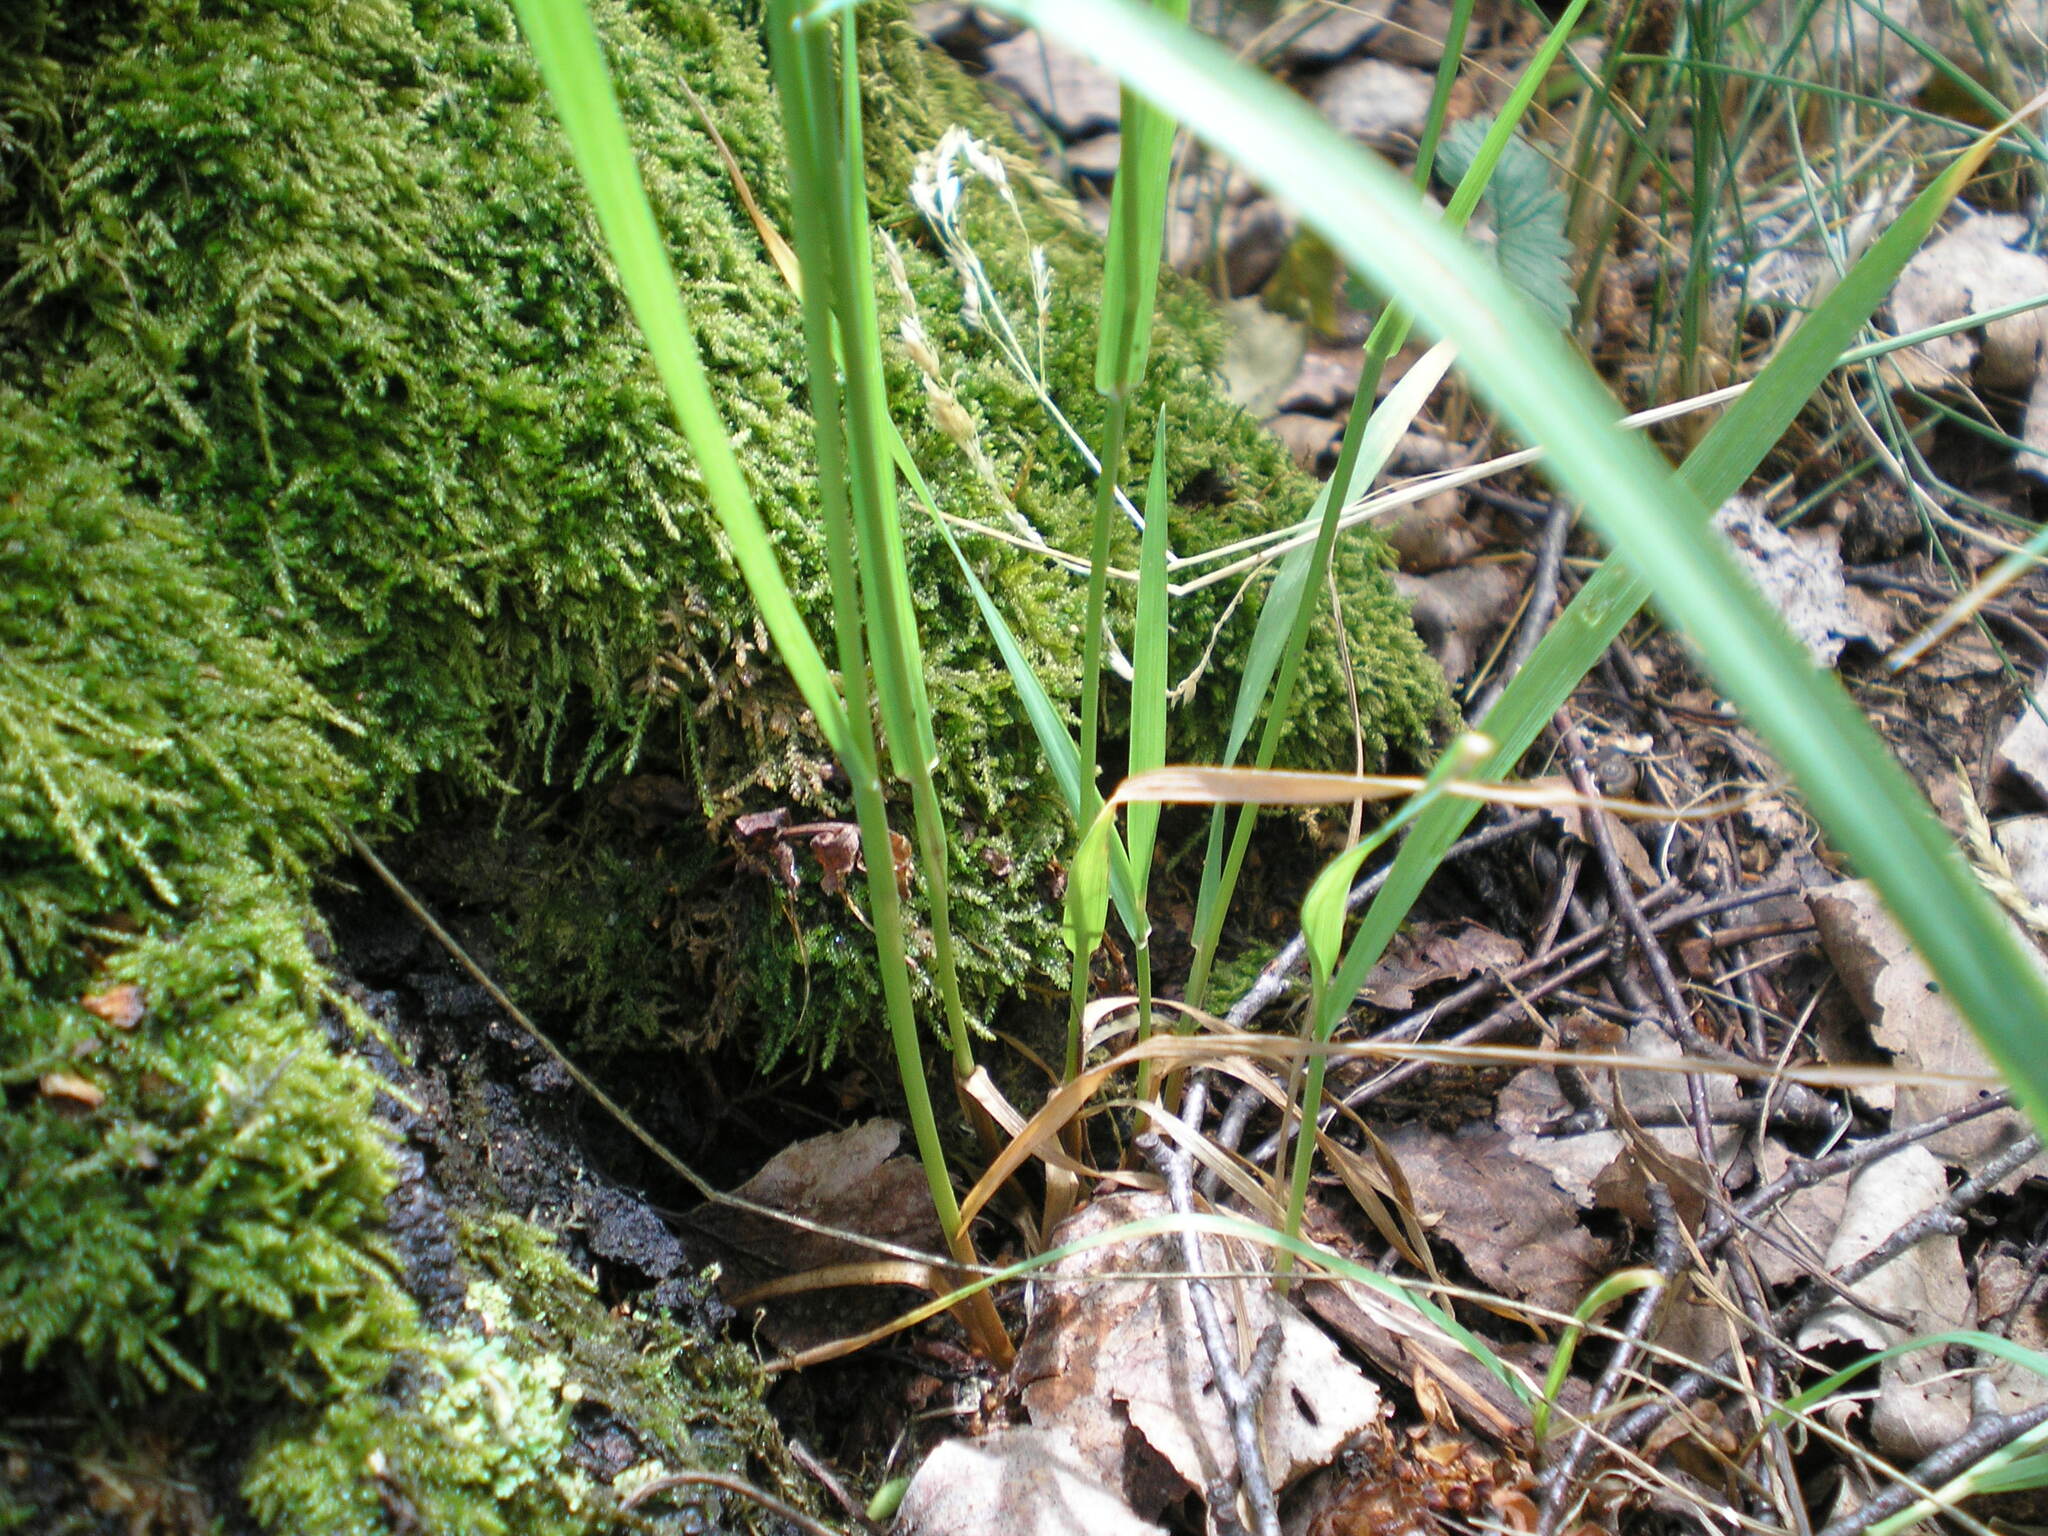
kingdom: Plantae
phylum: Tracheophyta
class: Liliopsida
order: Poales
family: Poaceae
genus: Milium
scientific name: Milium effusum
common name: Wood millet
